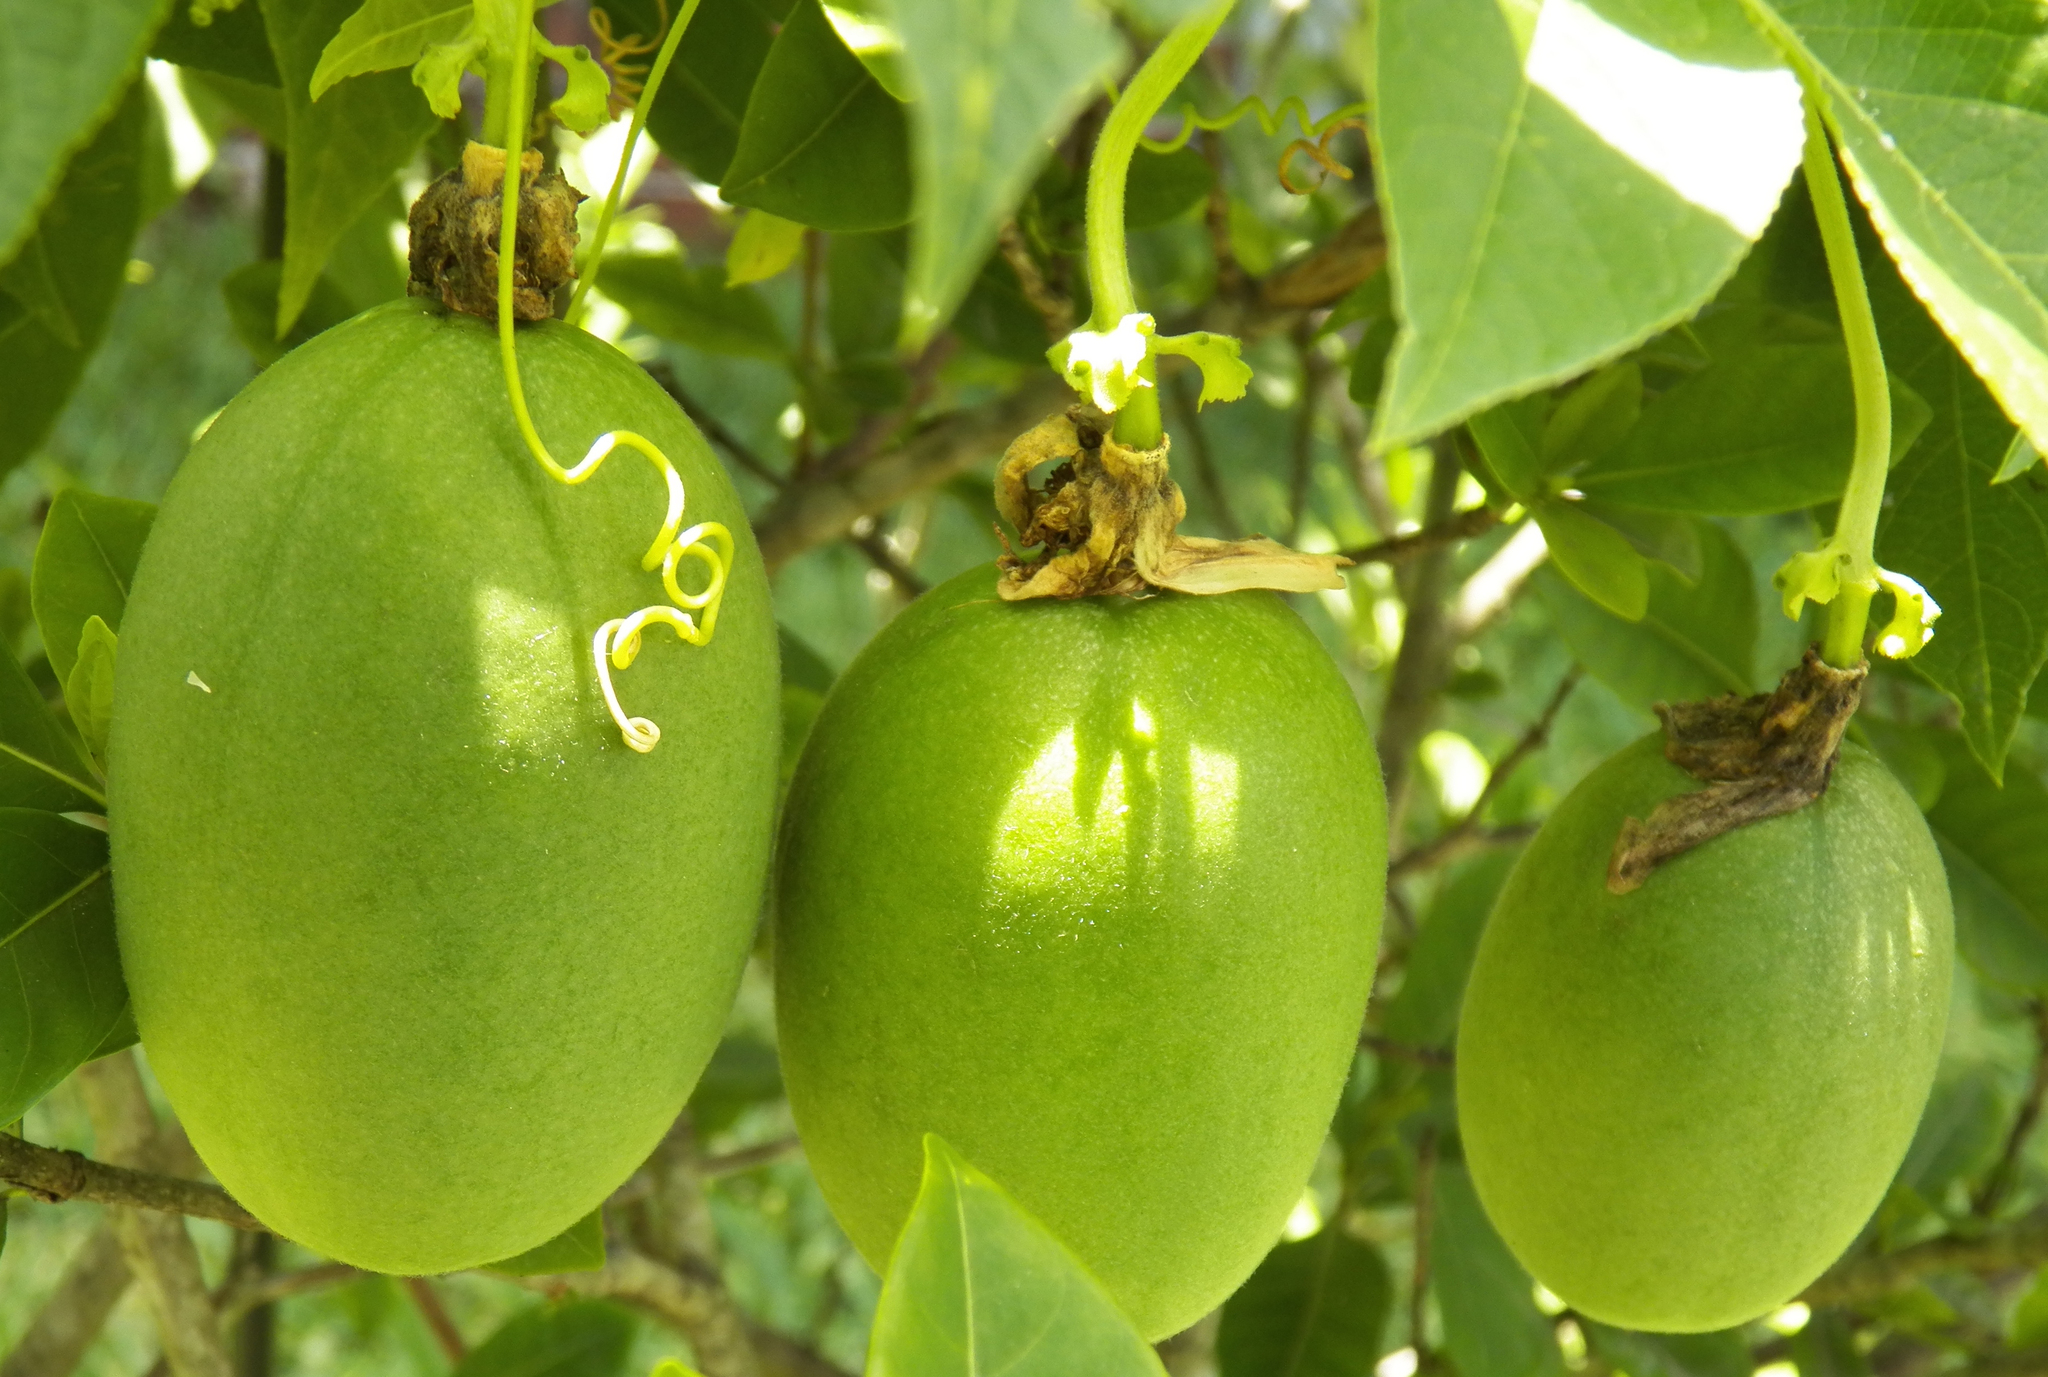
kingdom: Plantae
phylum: Tracheophyta
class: Magnoliopsida
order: Malpighiales
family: Passifloraceae
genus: Passiflora
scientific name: Passiflora incarnata
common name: Apricot-vine
